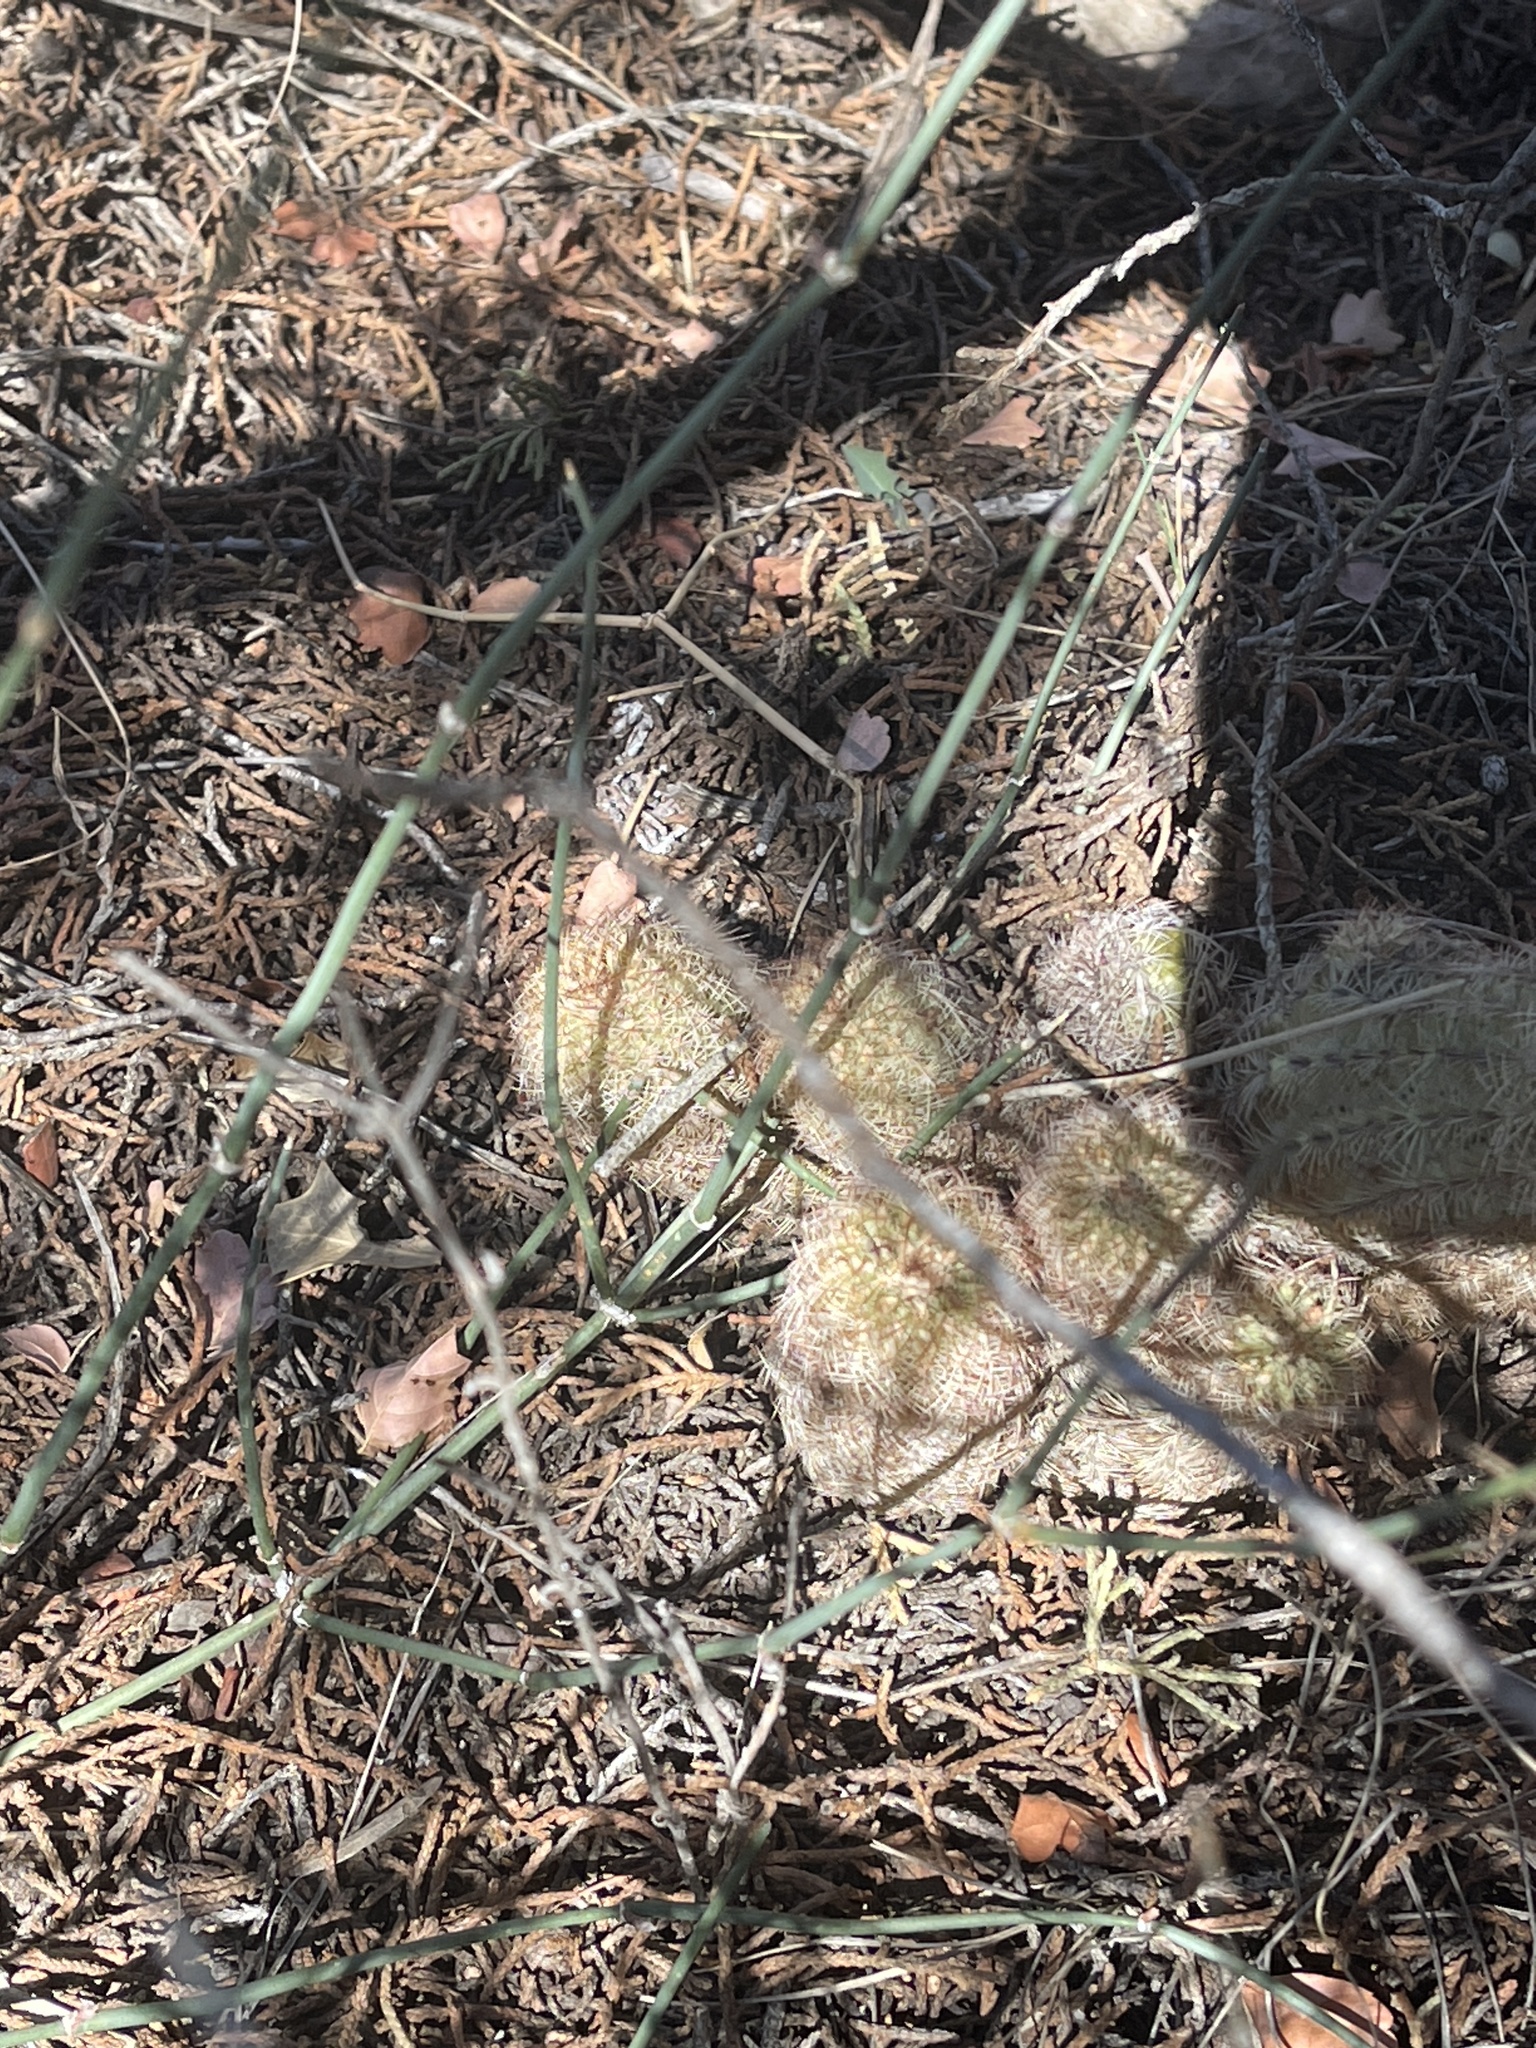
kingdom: Plantae
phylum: Tracheophyta
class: Magnoliopsida
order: Caryophyllales
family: Cactaceae
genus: Echinocereus
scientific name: Echinocereus reichenbachii
